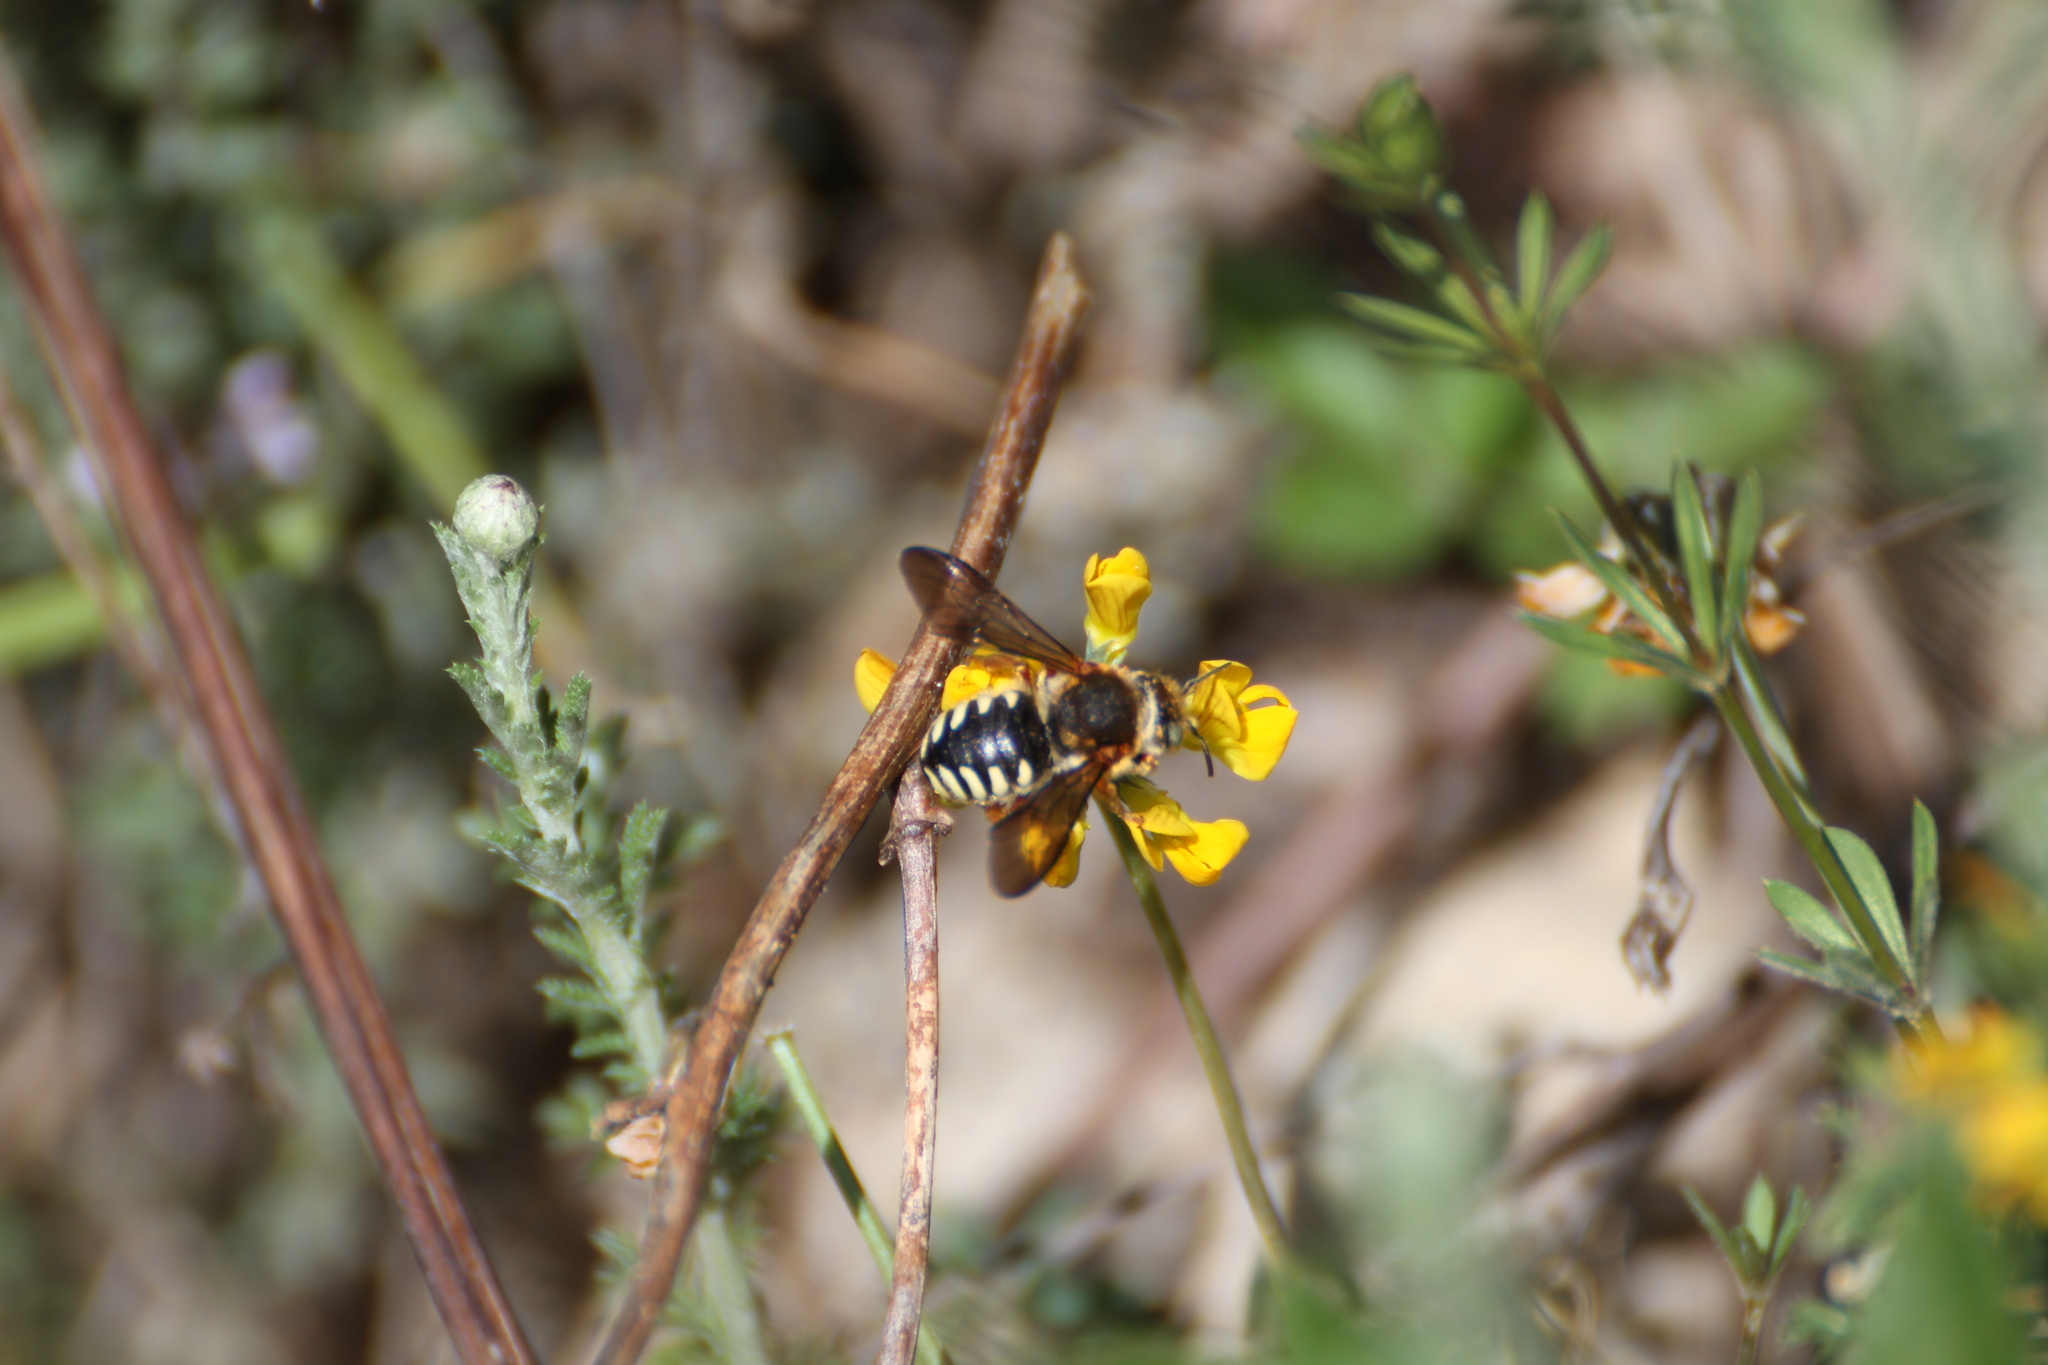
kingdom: Animalia
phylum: Arthropoda
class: Insecta
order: Hymenoptera
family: Megachilidae
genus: Rhodanthidium
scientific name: Rhodanthidium septemdentatum
